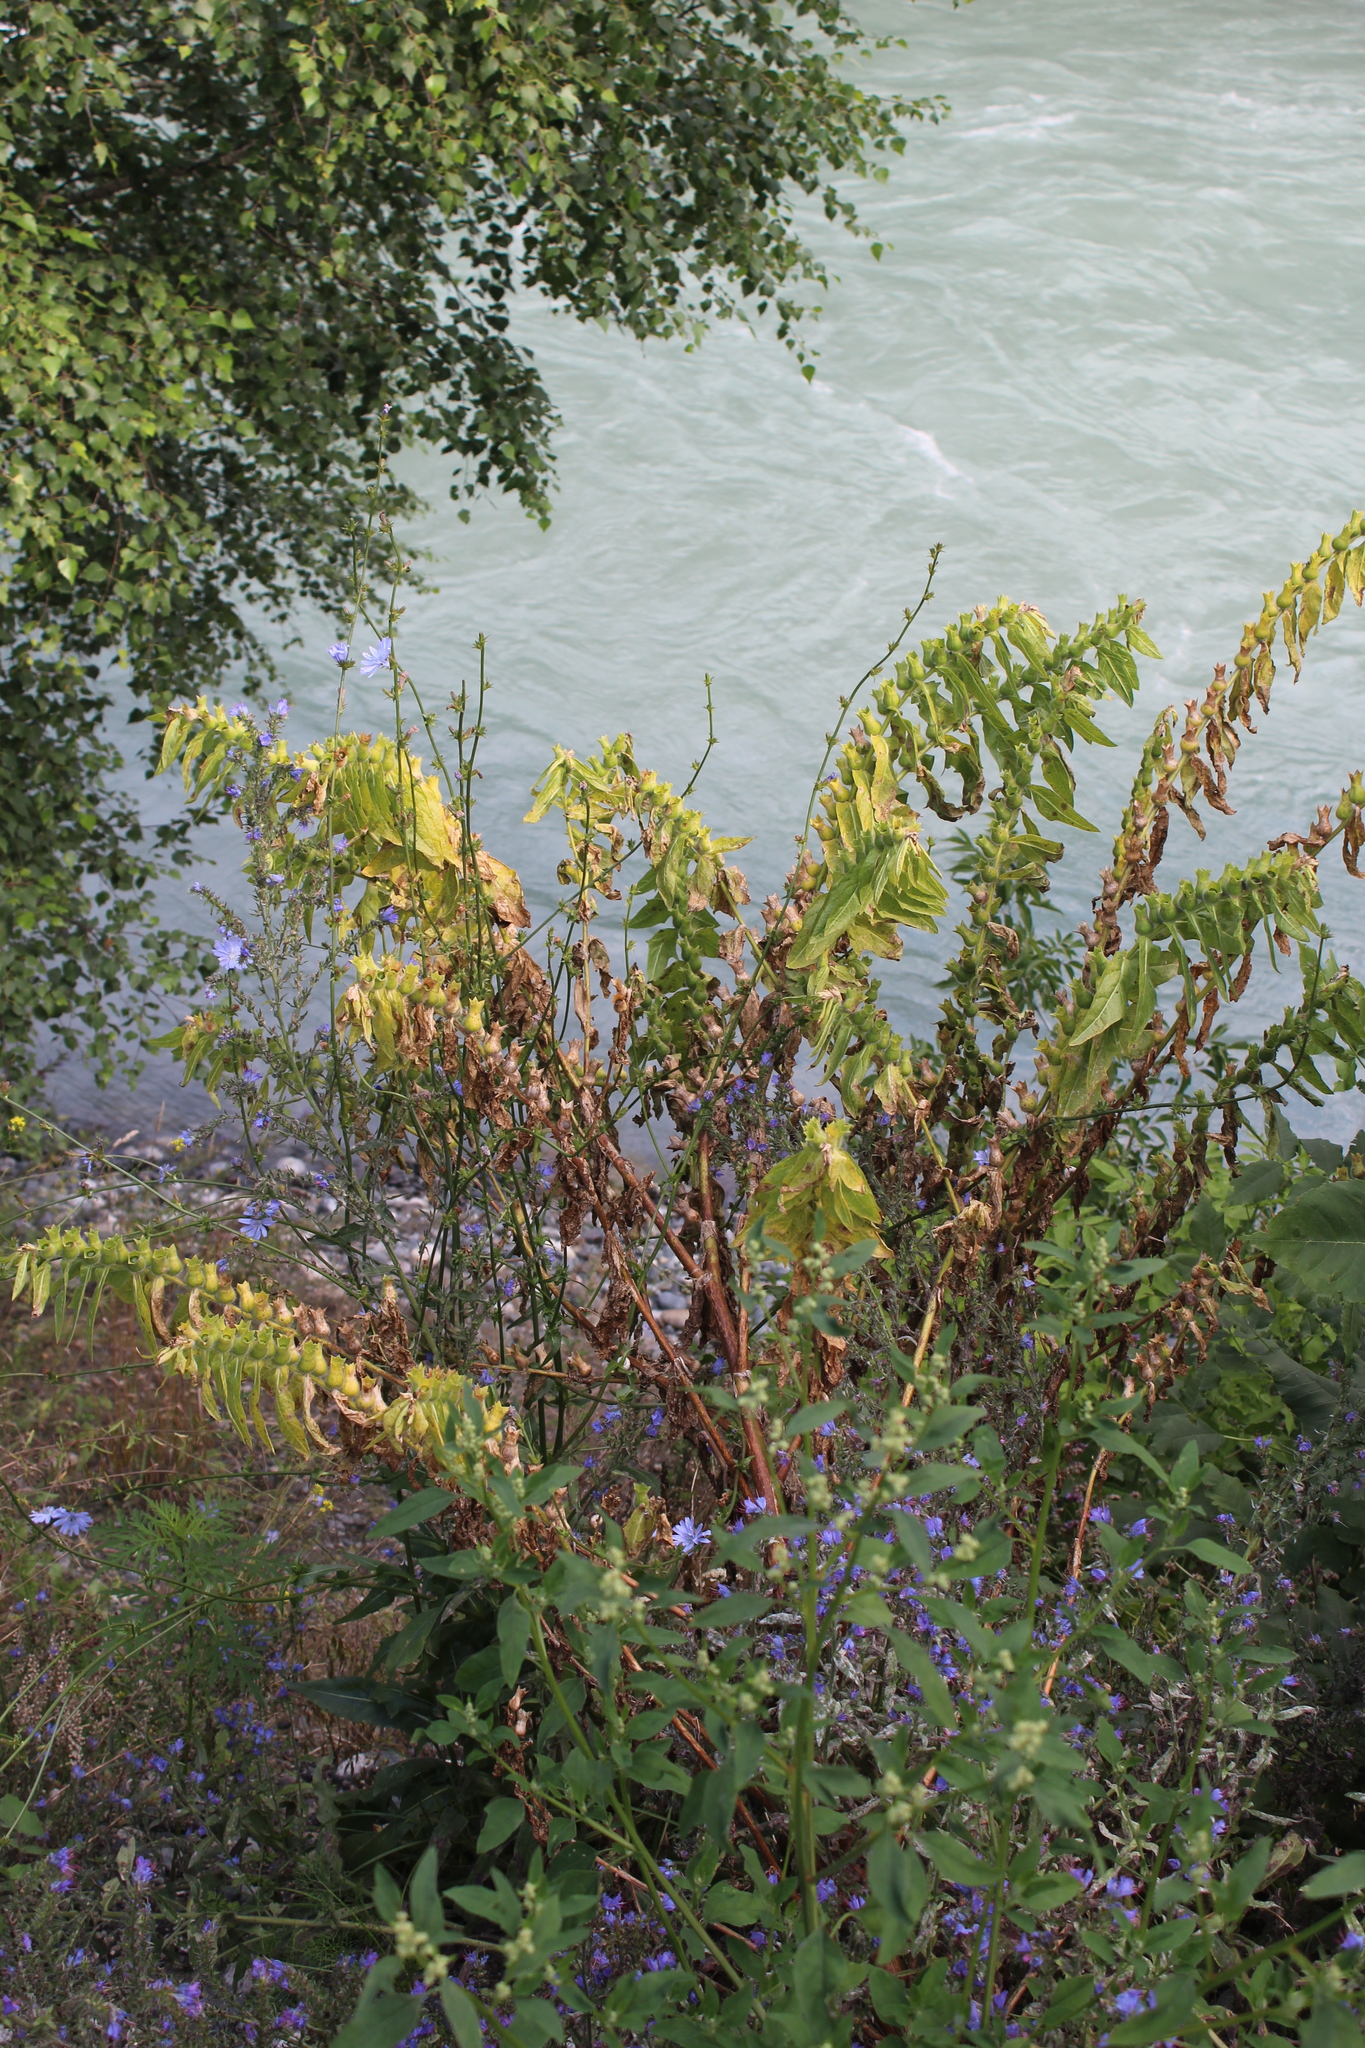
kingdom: Plantae
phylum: Tracheophyta
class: Magnoliopsida
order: Solanales
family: Solanaceae
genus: Hyoscyamus
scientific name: Hyoscyamus niger
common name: Henbane
